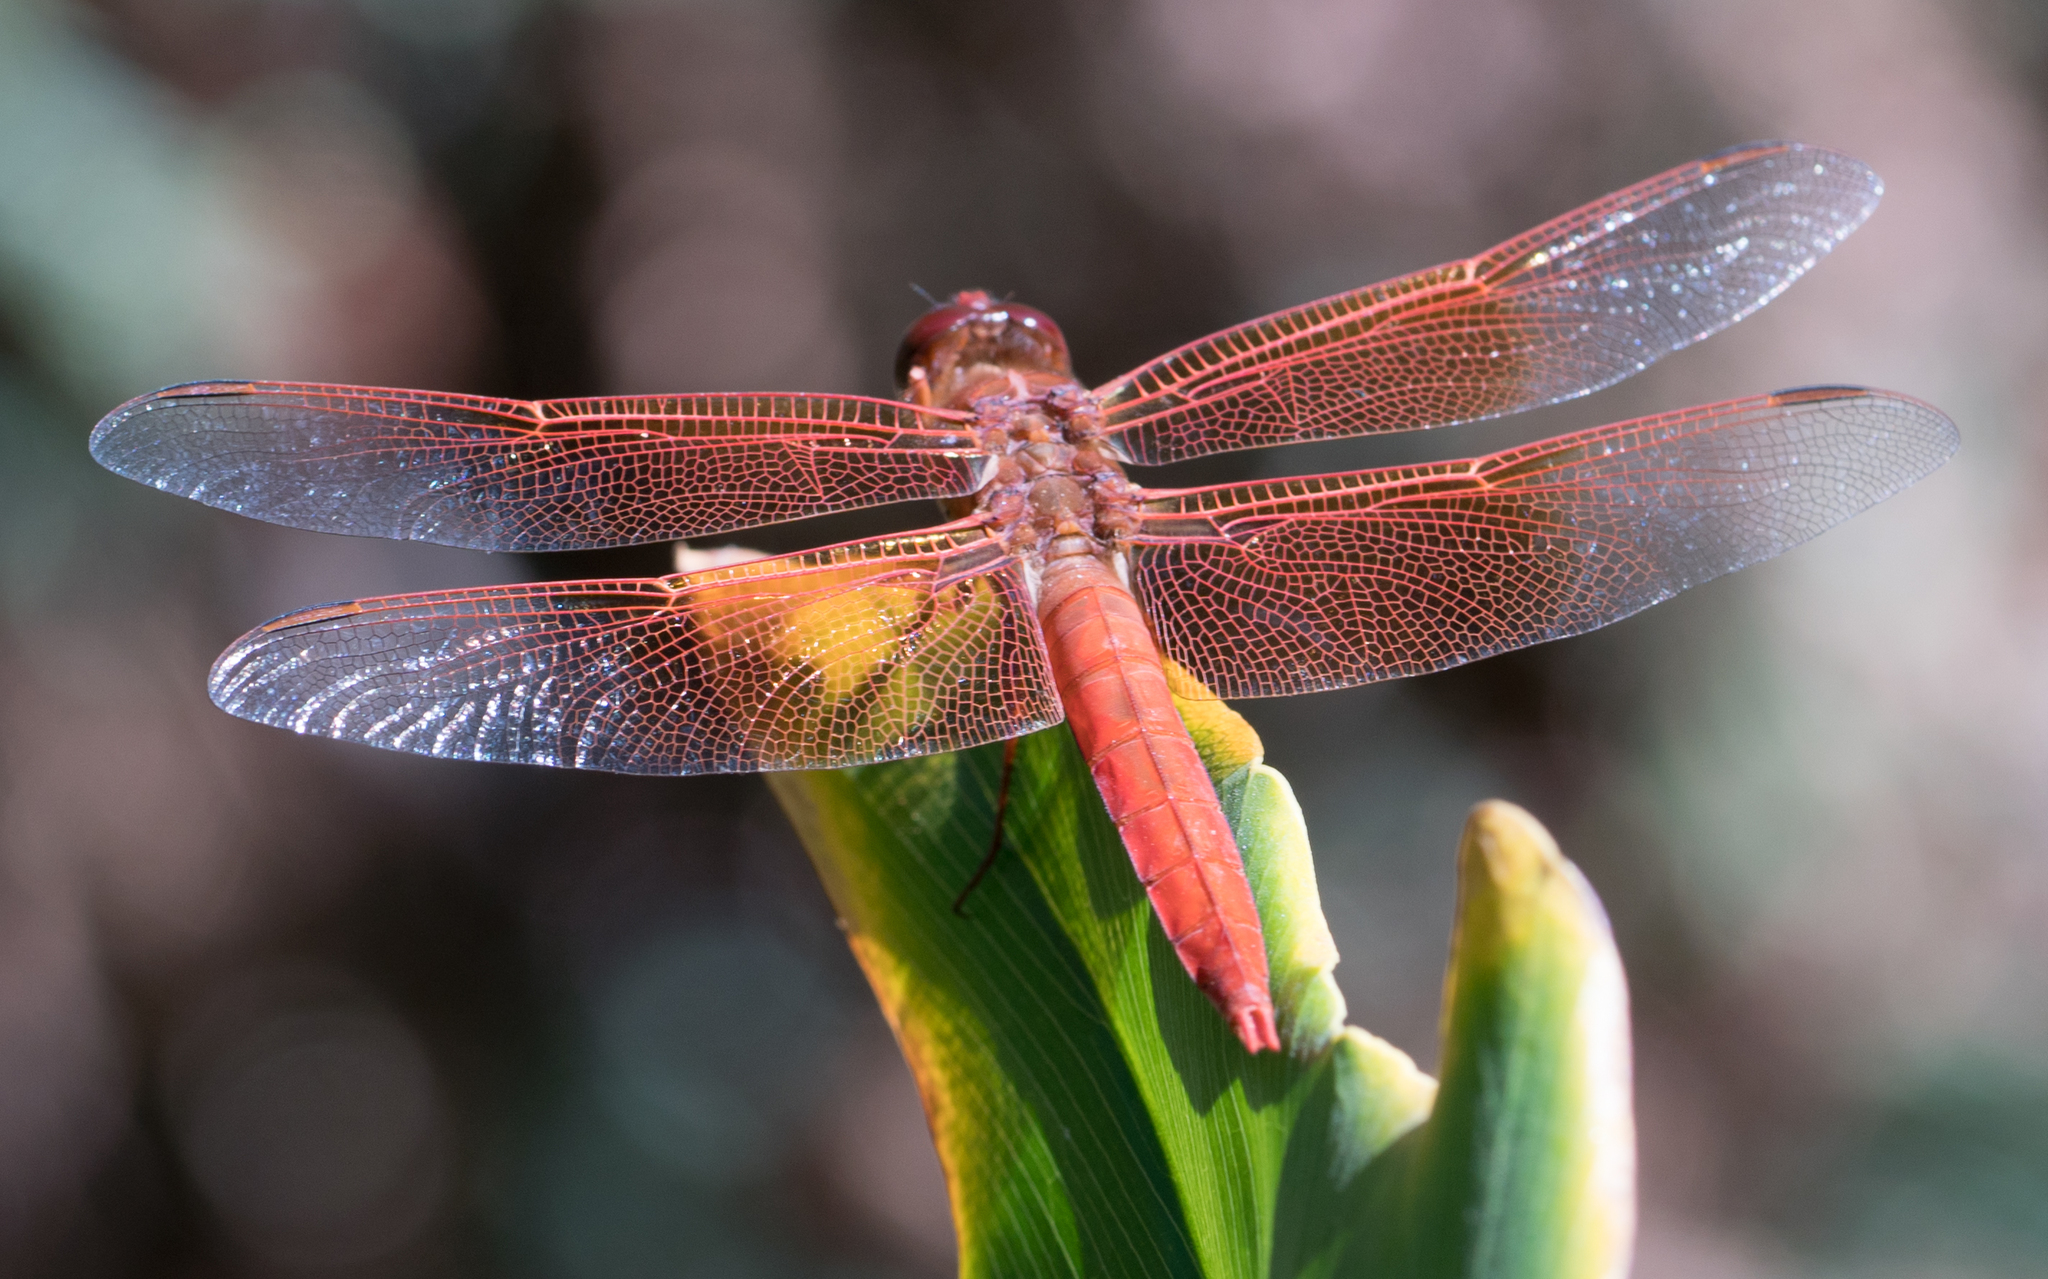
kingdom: Animalia
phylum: Arthropoda
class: Insecta
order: Odonata
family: Libellulidae
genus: Libellula
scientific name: Libellula saturata
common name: Flame skimmer
